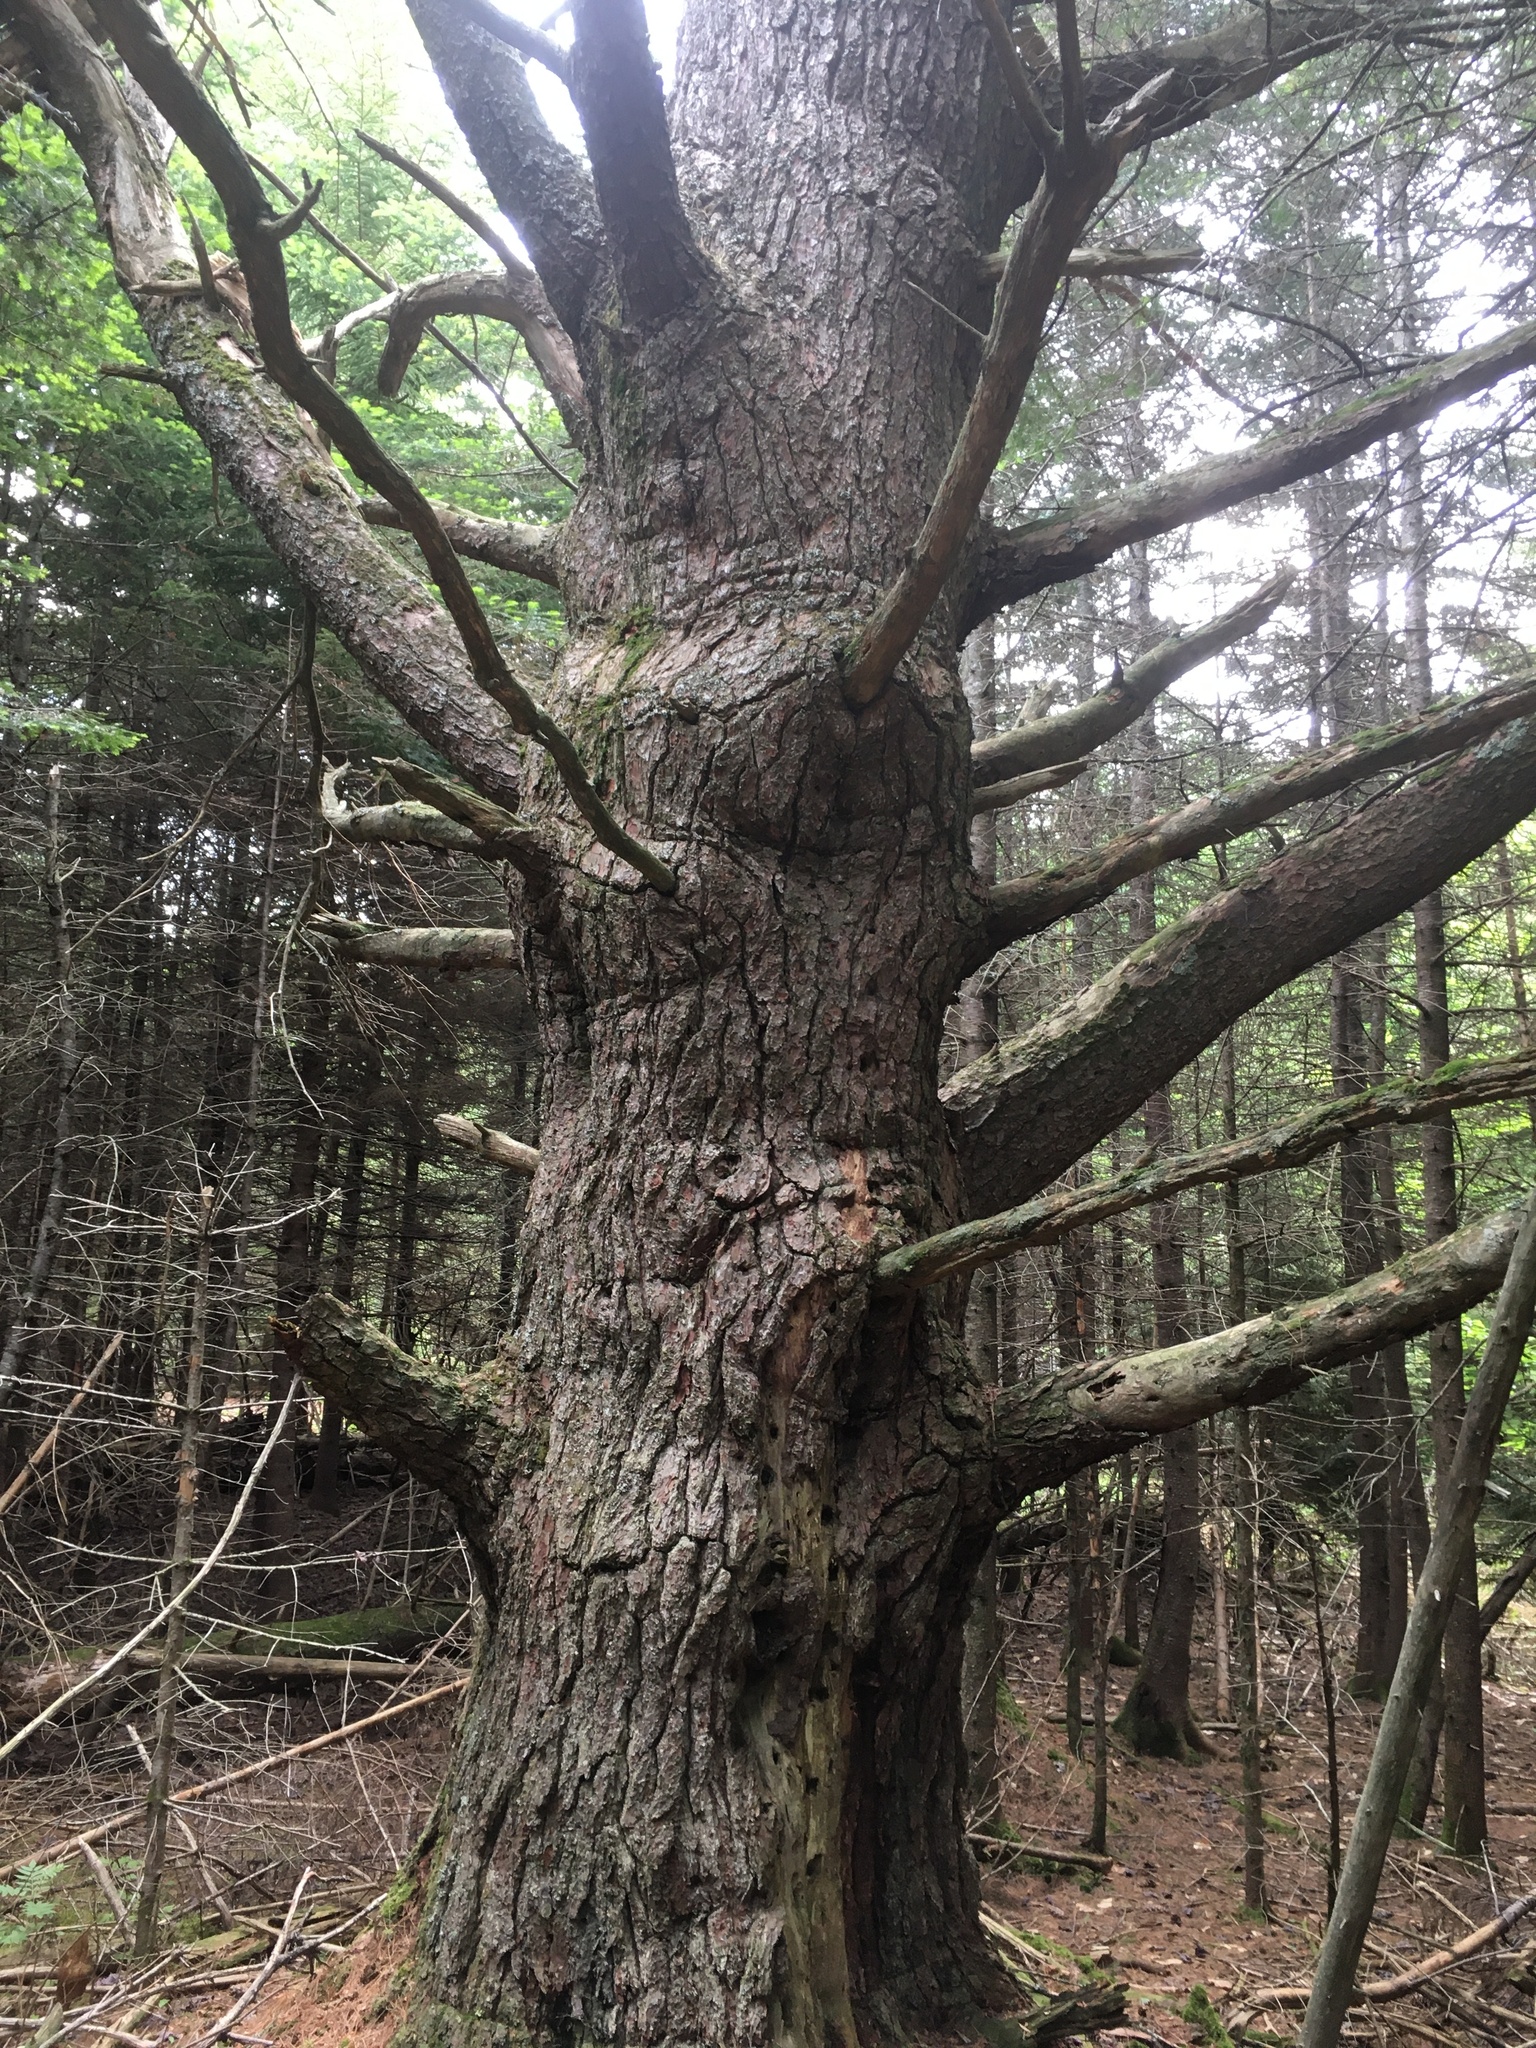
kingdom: Plantae
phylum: Tracheophyta
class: Pinopsida
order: Pinales
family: Pinaceae
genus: Pinus
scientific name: Pinus strobus
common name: Weymouth pine
